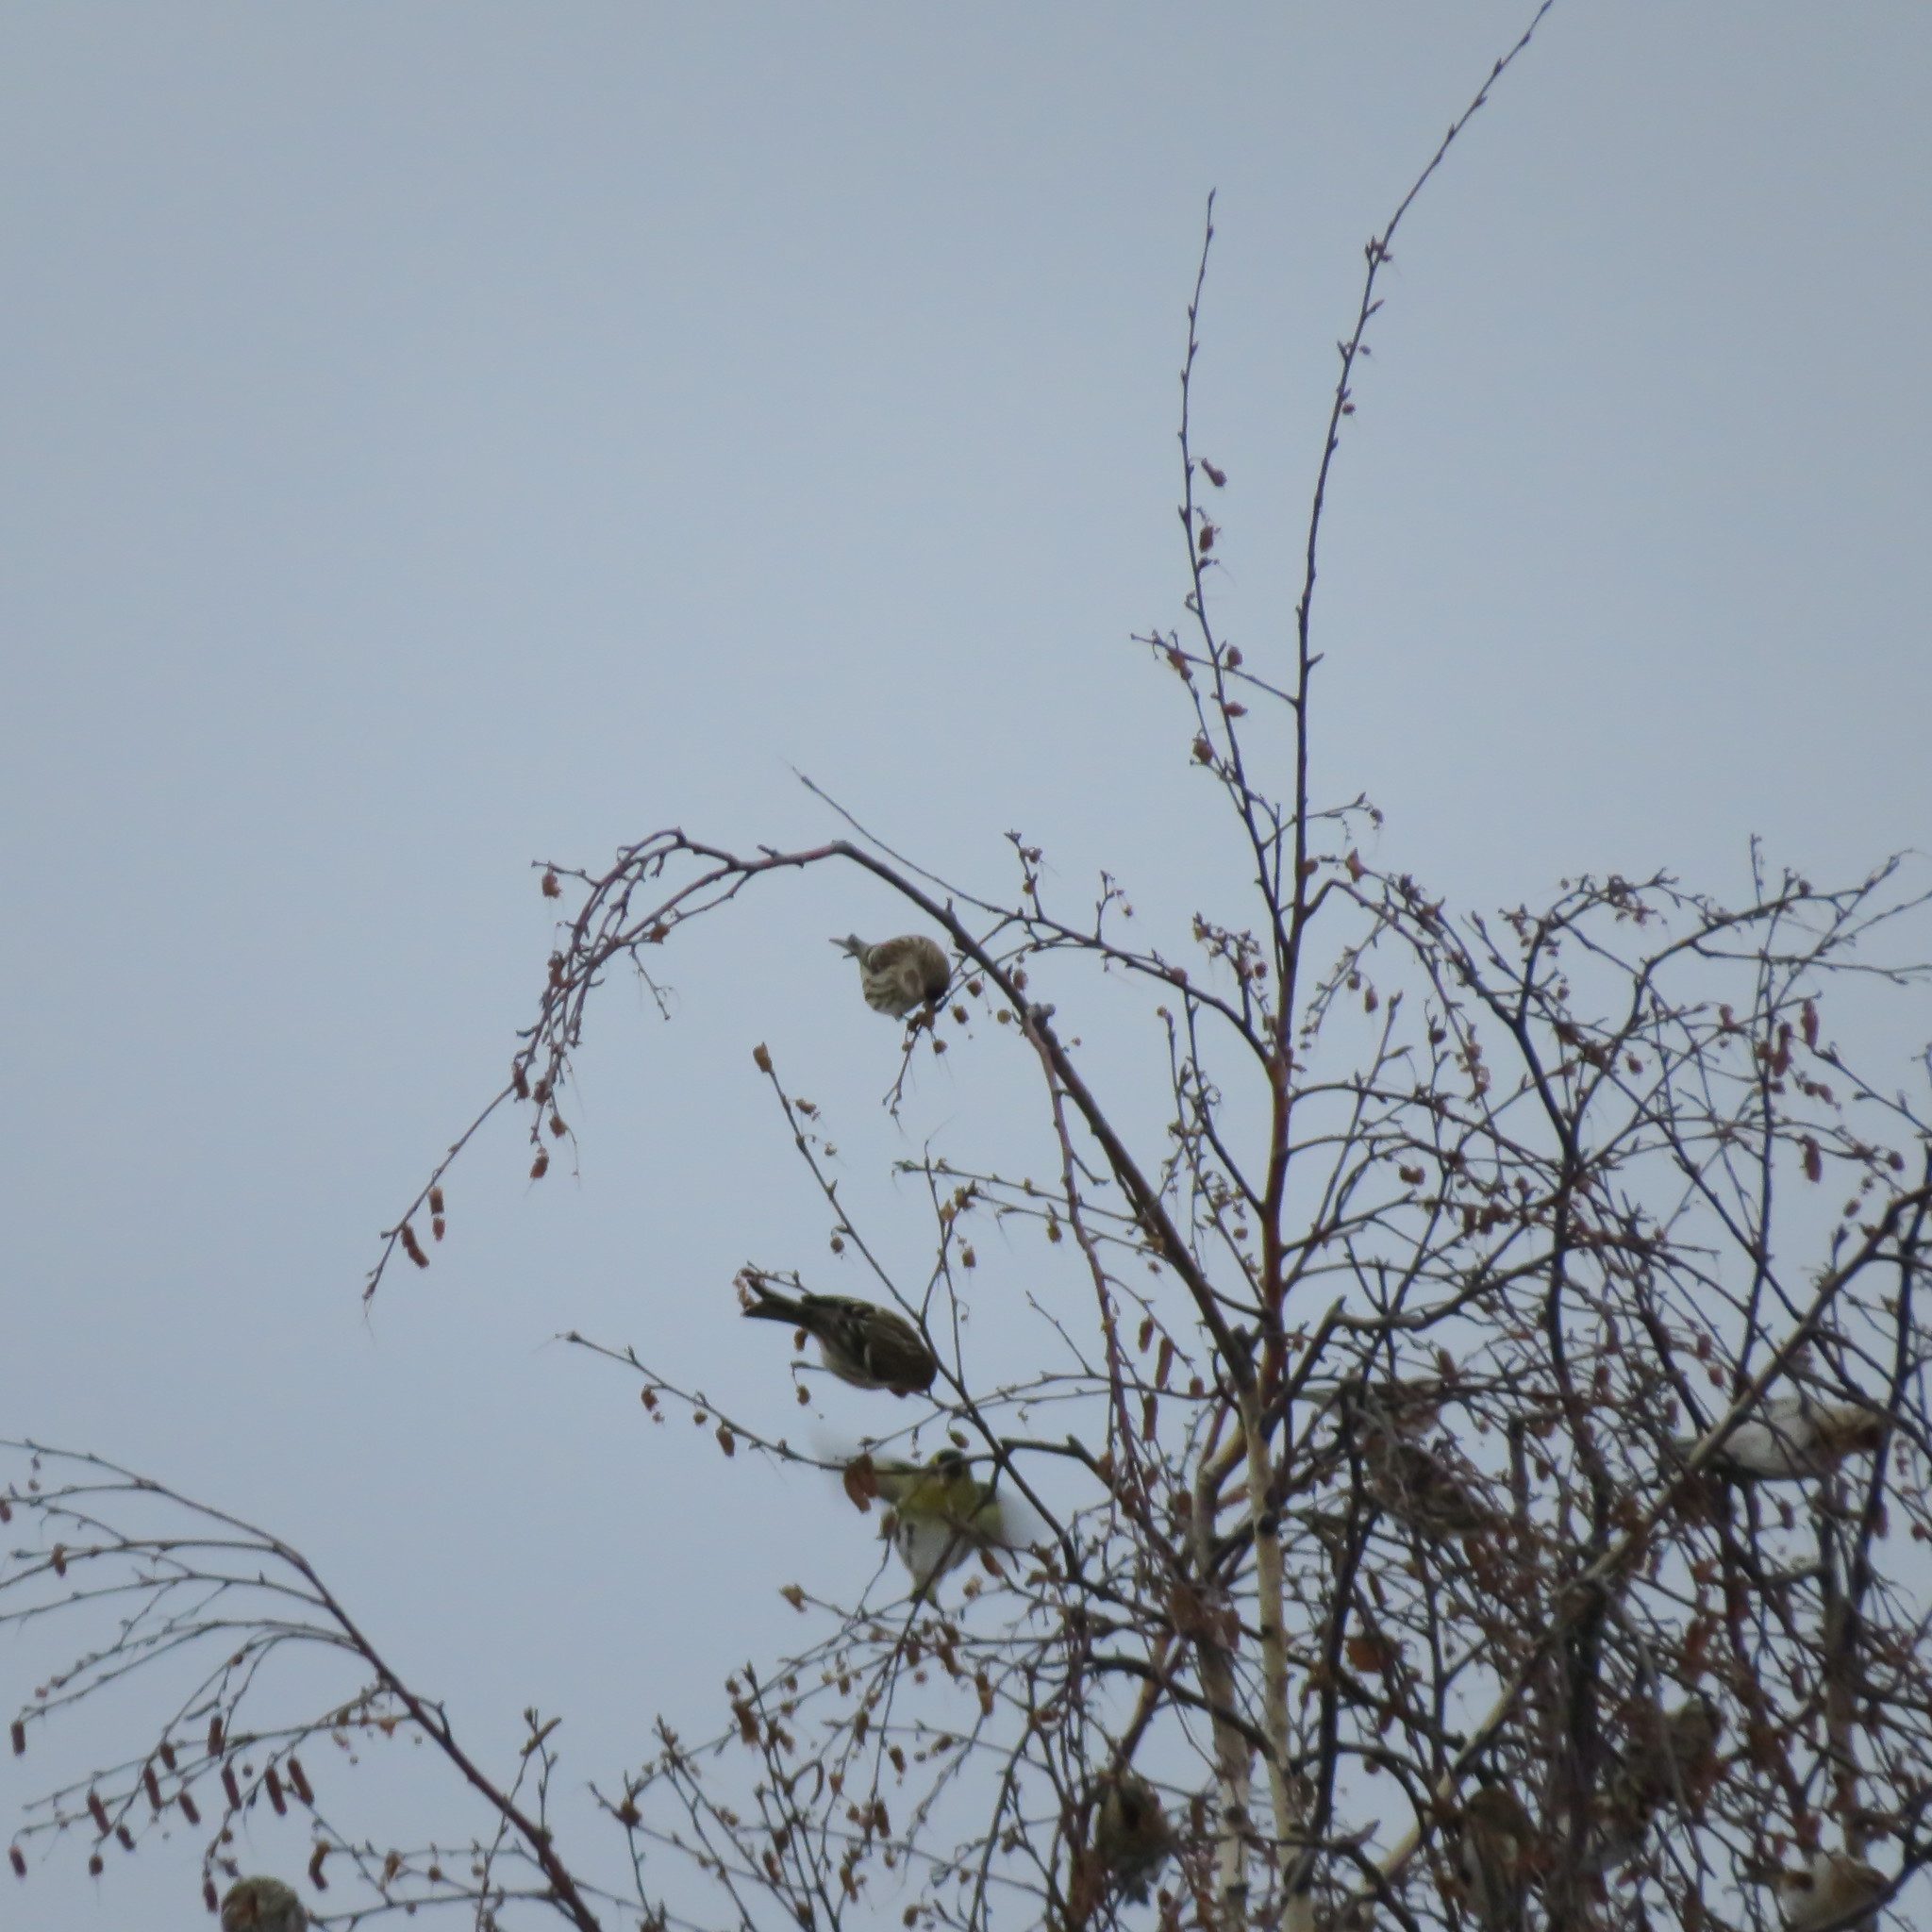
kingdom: Animalia
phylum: Chordata
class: Aves
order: Passeriformes
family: Fringillidae
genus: Spinus
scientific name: Spinus spinus
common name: Eurasian siskin
